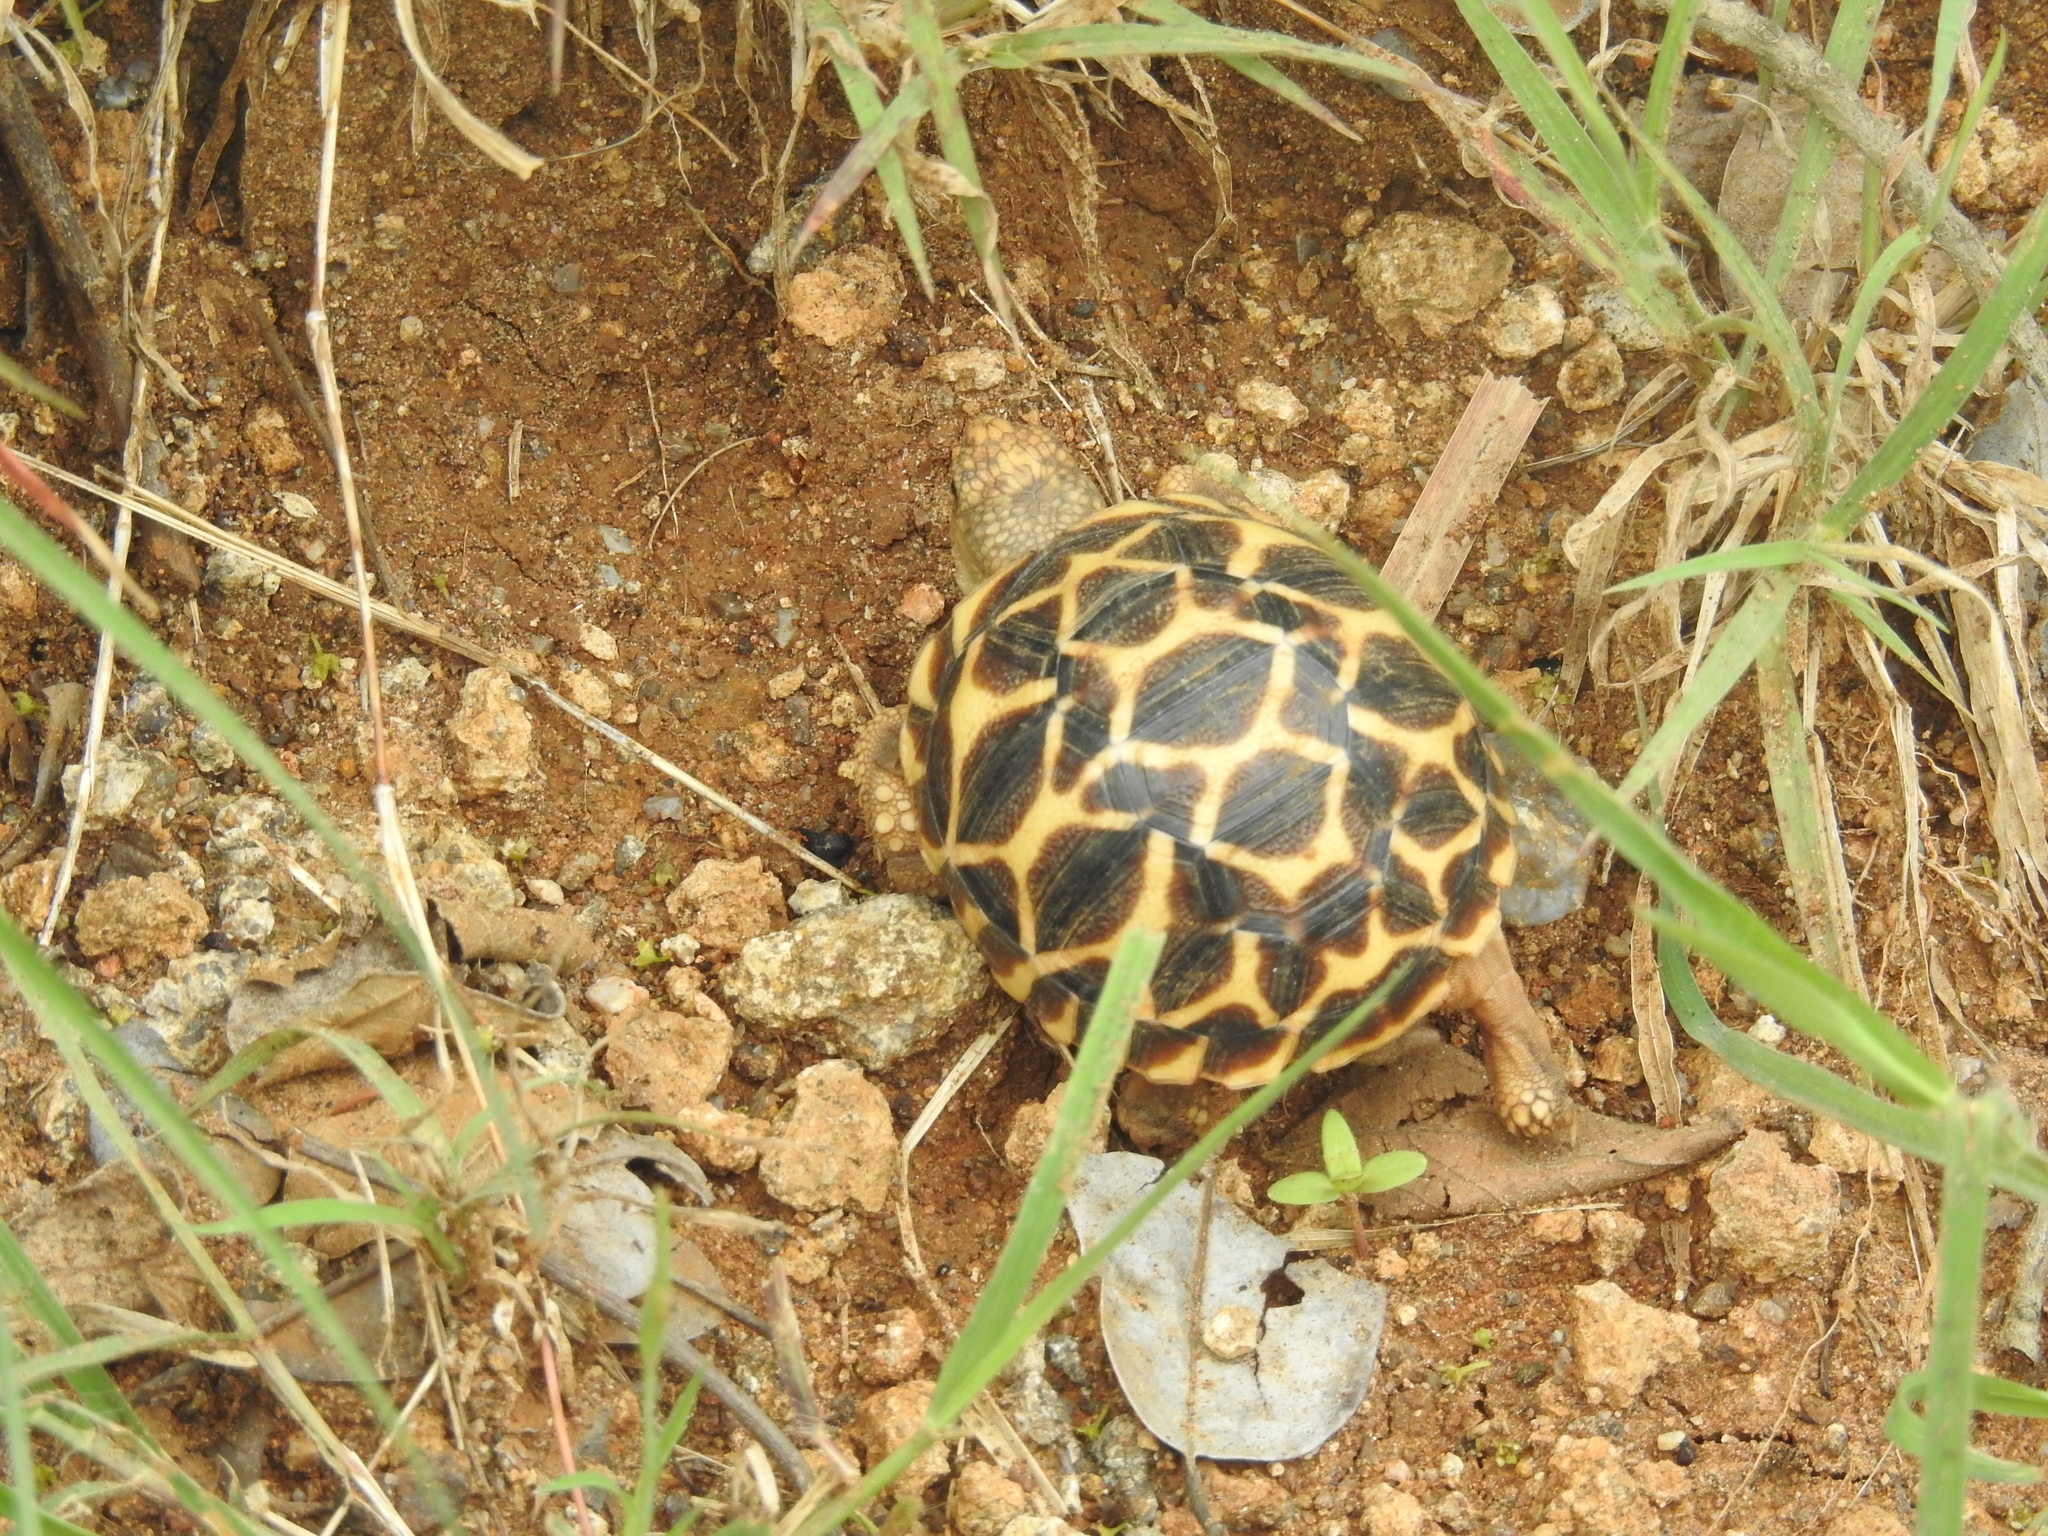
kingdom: Animalia
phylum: Chordata
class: Testudines
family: Testudinidae
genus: Geochelone
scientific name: Geochelone elegans
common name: Indian star tortoise
